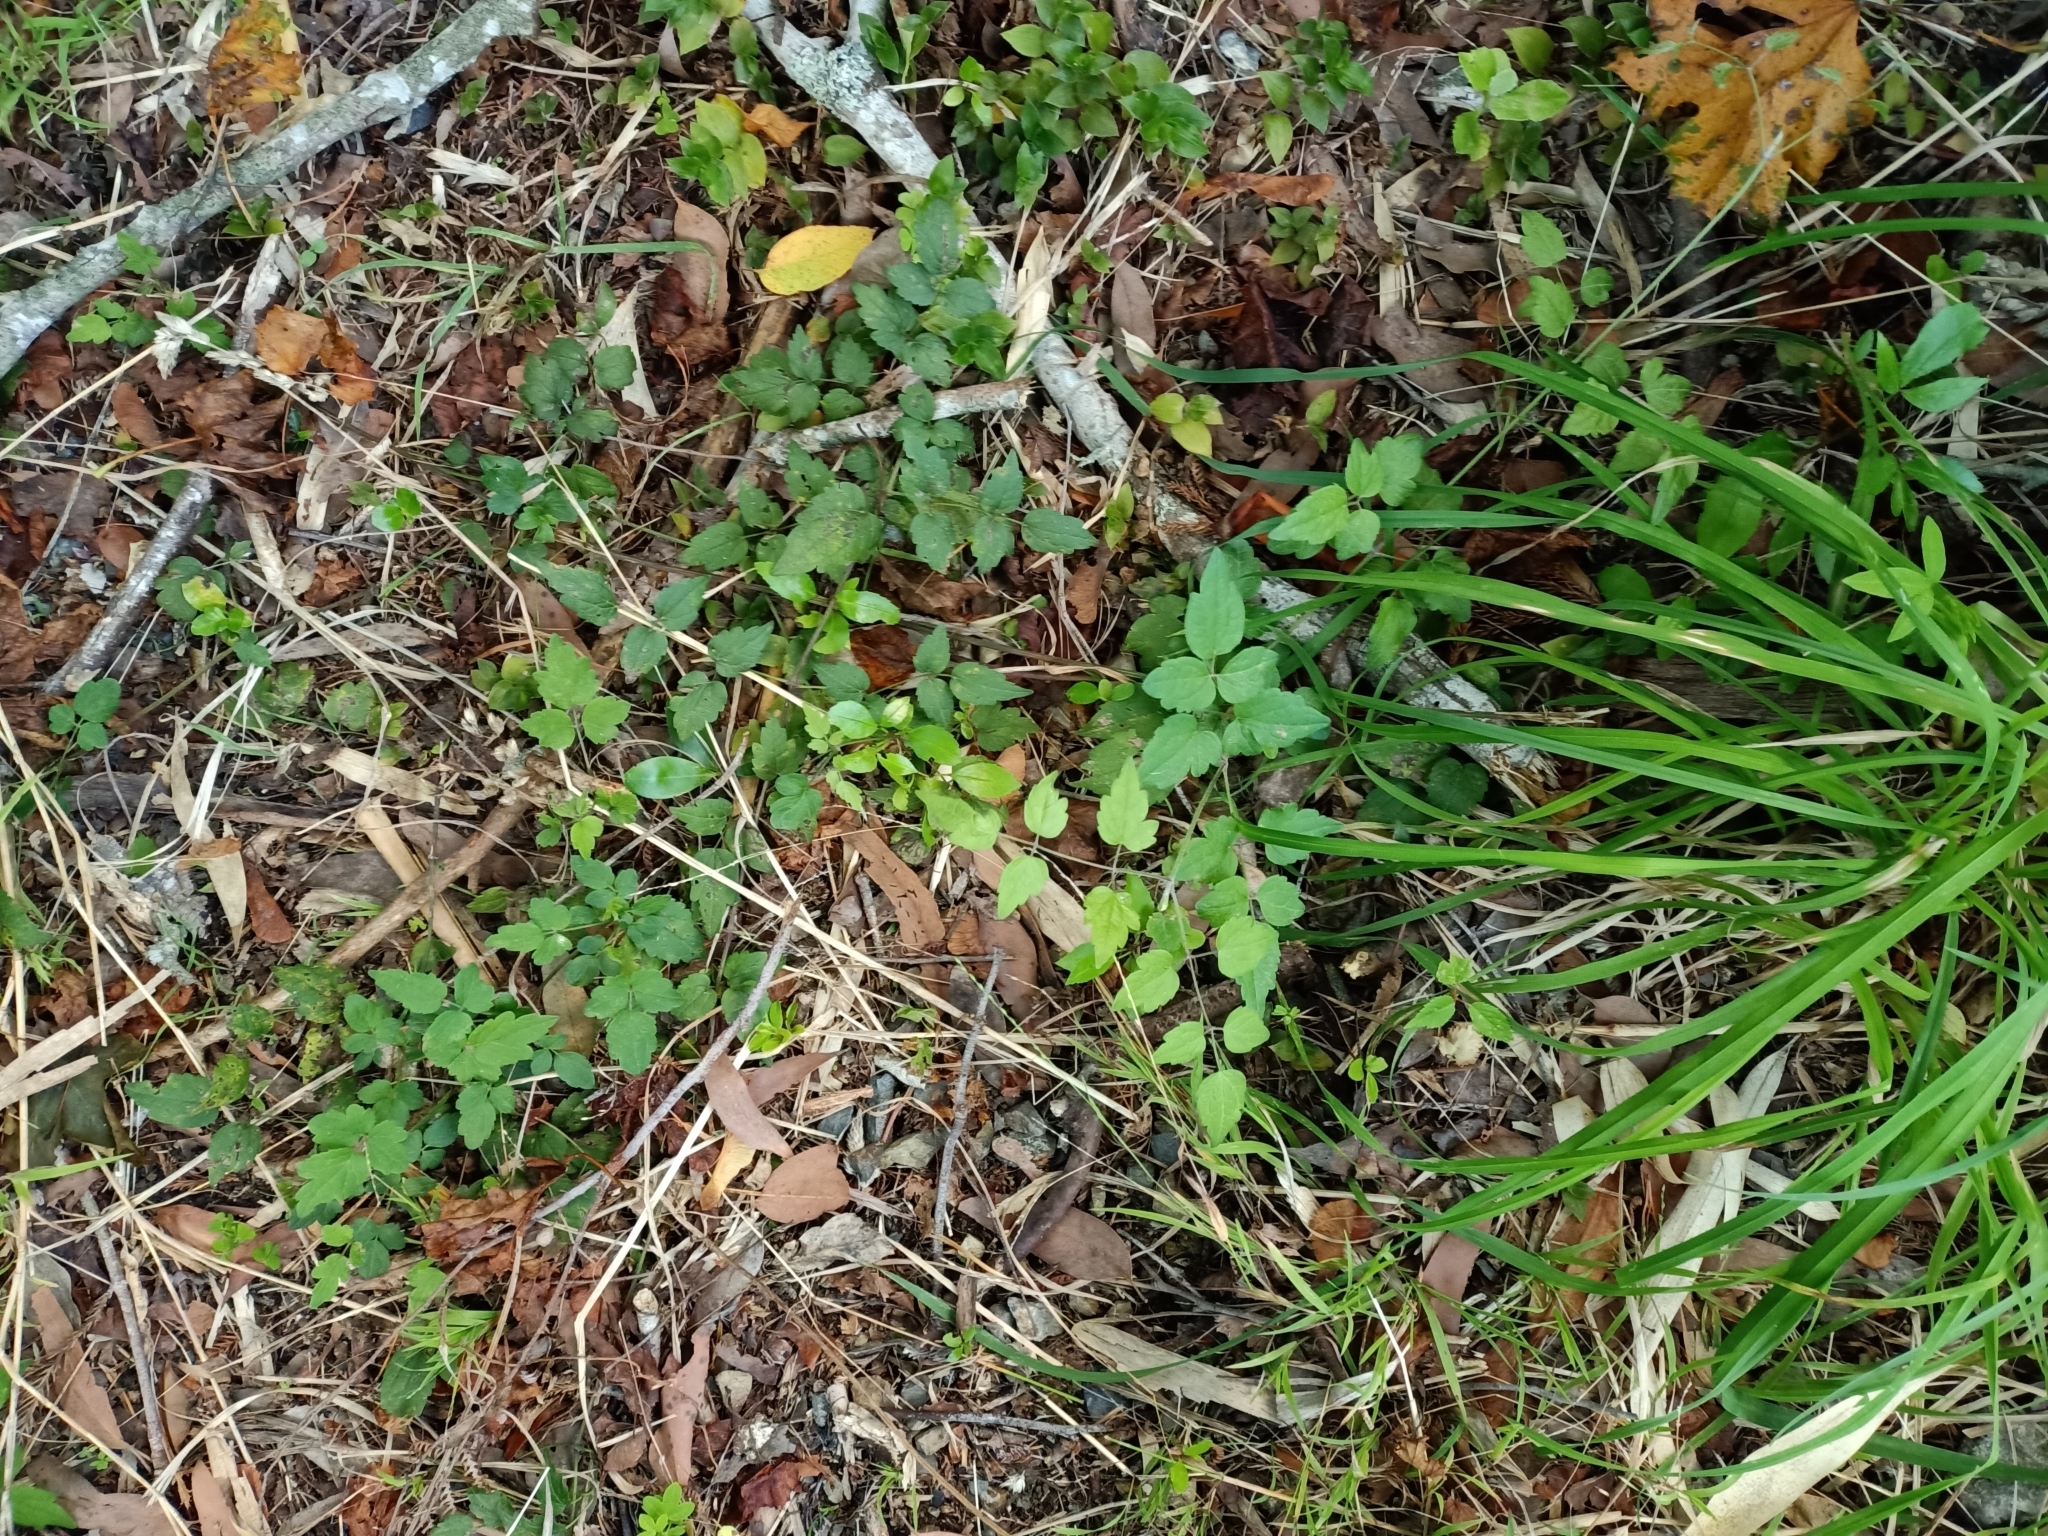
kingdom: Plantae
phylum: Tracheophyta
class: Magnoliopsida
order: Ranunculales
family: Ranunculaceae
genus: Clematis
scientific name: Clematis vitalba
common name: Evergreen clematis
